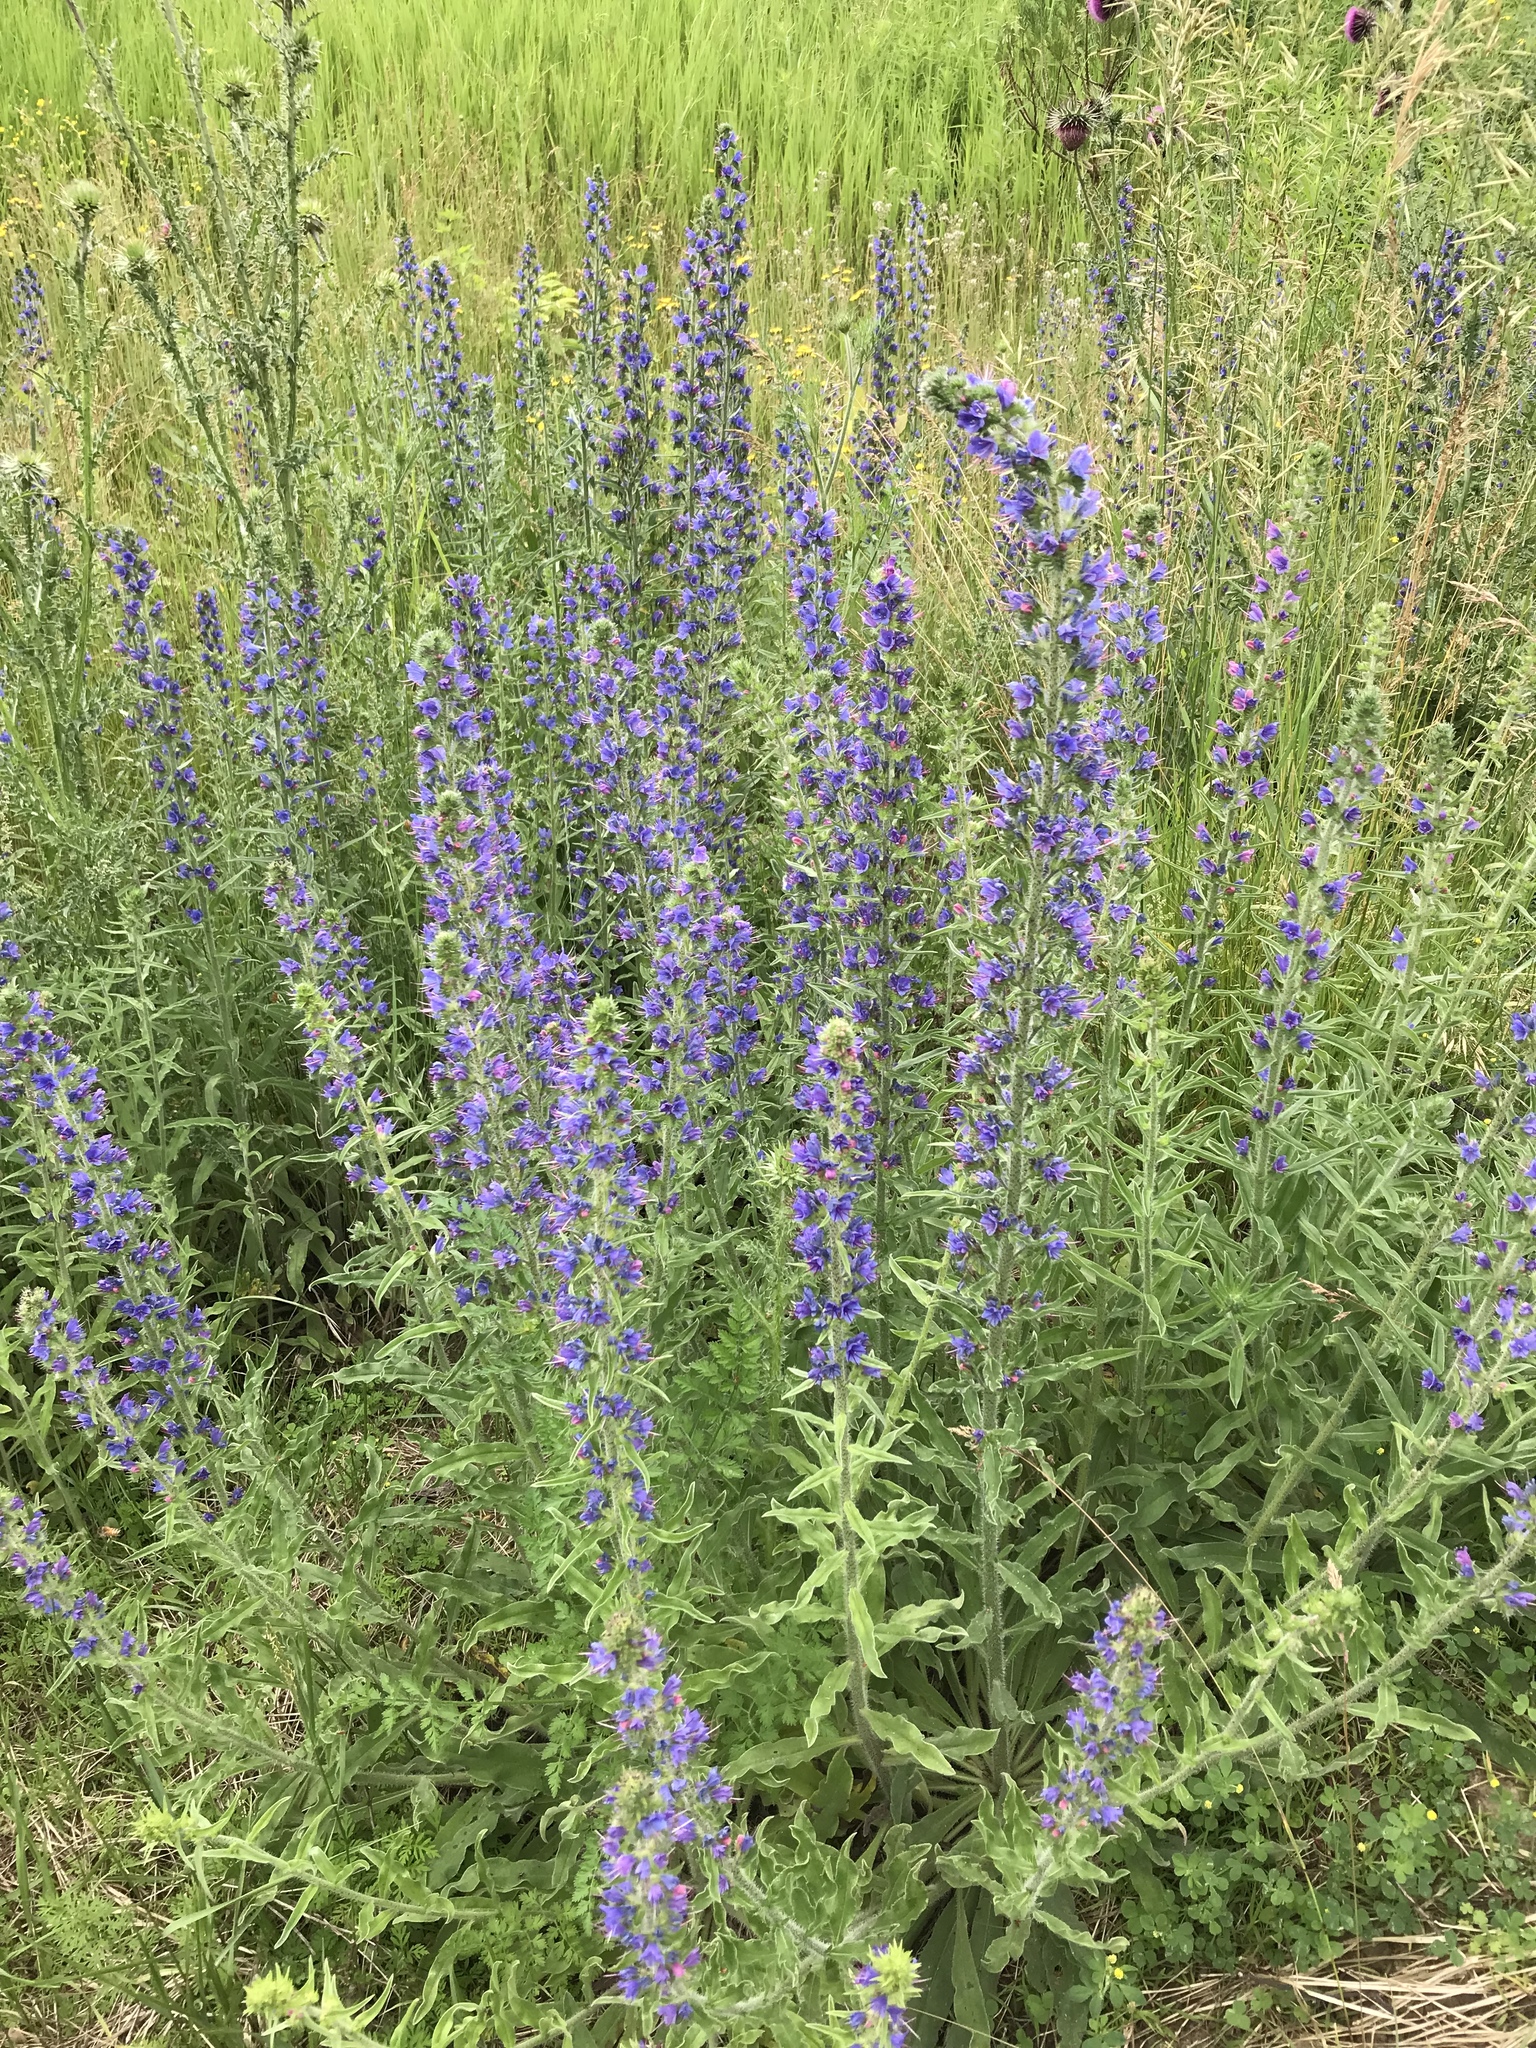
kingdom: Plantae
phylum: Tracheophyta
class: Magnoliopsida
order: Boraginales
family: Boraginaceae
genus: Echium
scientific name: Echium vulgare
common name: Common viper's bugloss
